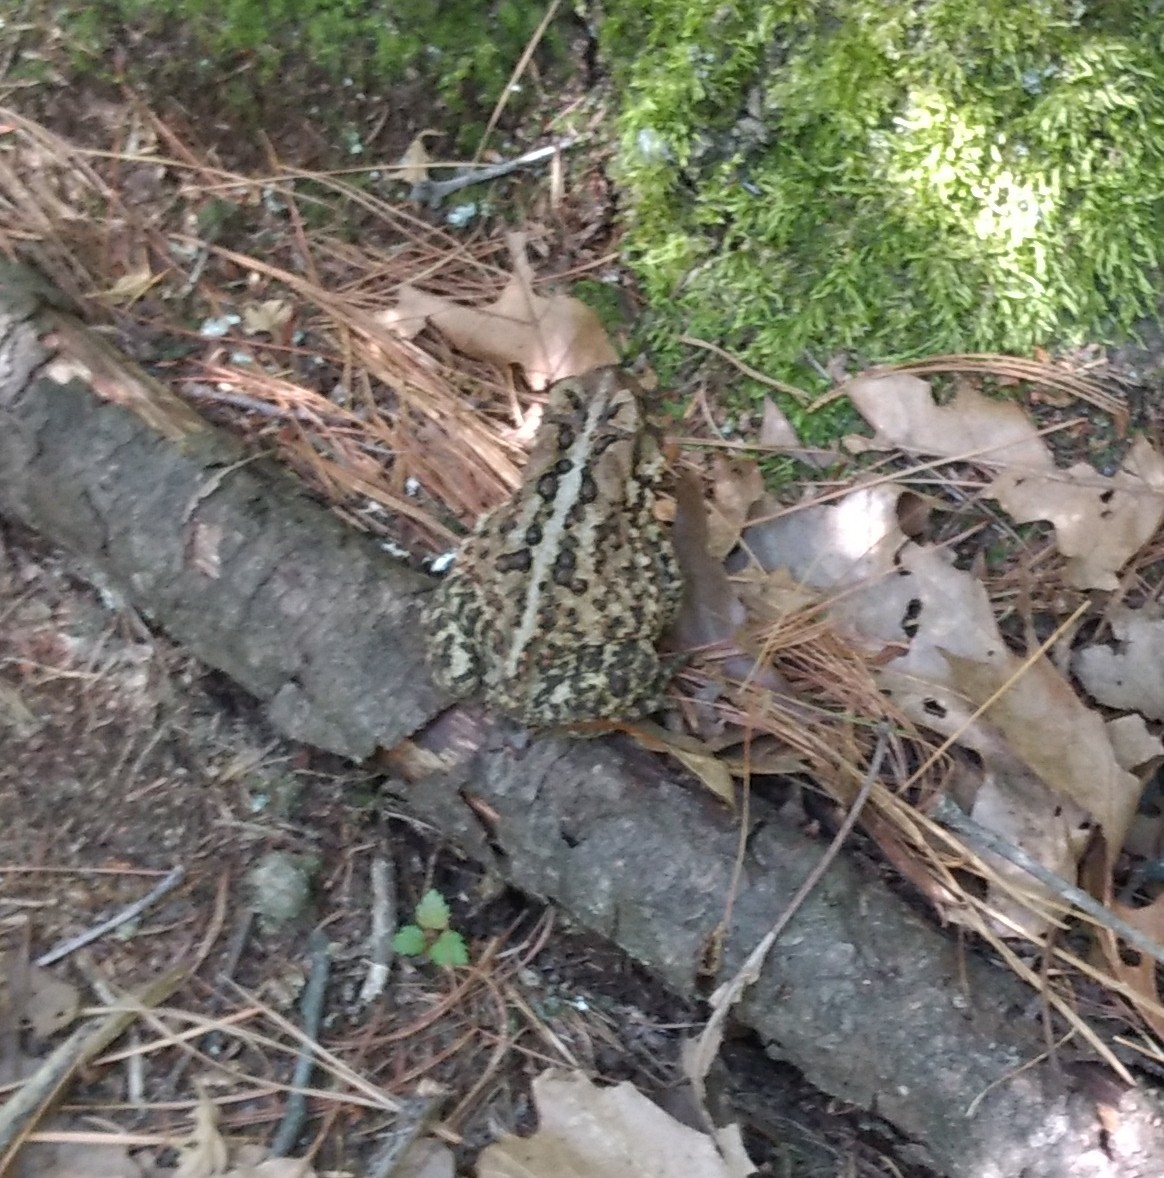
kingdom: Animalia
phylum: Chordata
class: Amphibia
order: Anura
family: Bufonidae
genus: Anaxyrus
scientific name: Anaxyrus americanus
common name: American toad
